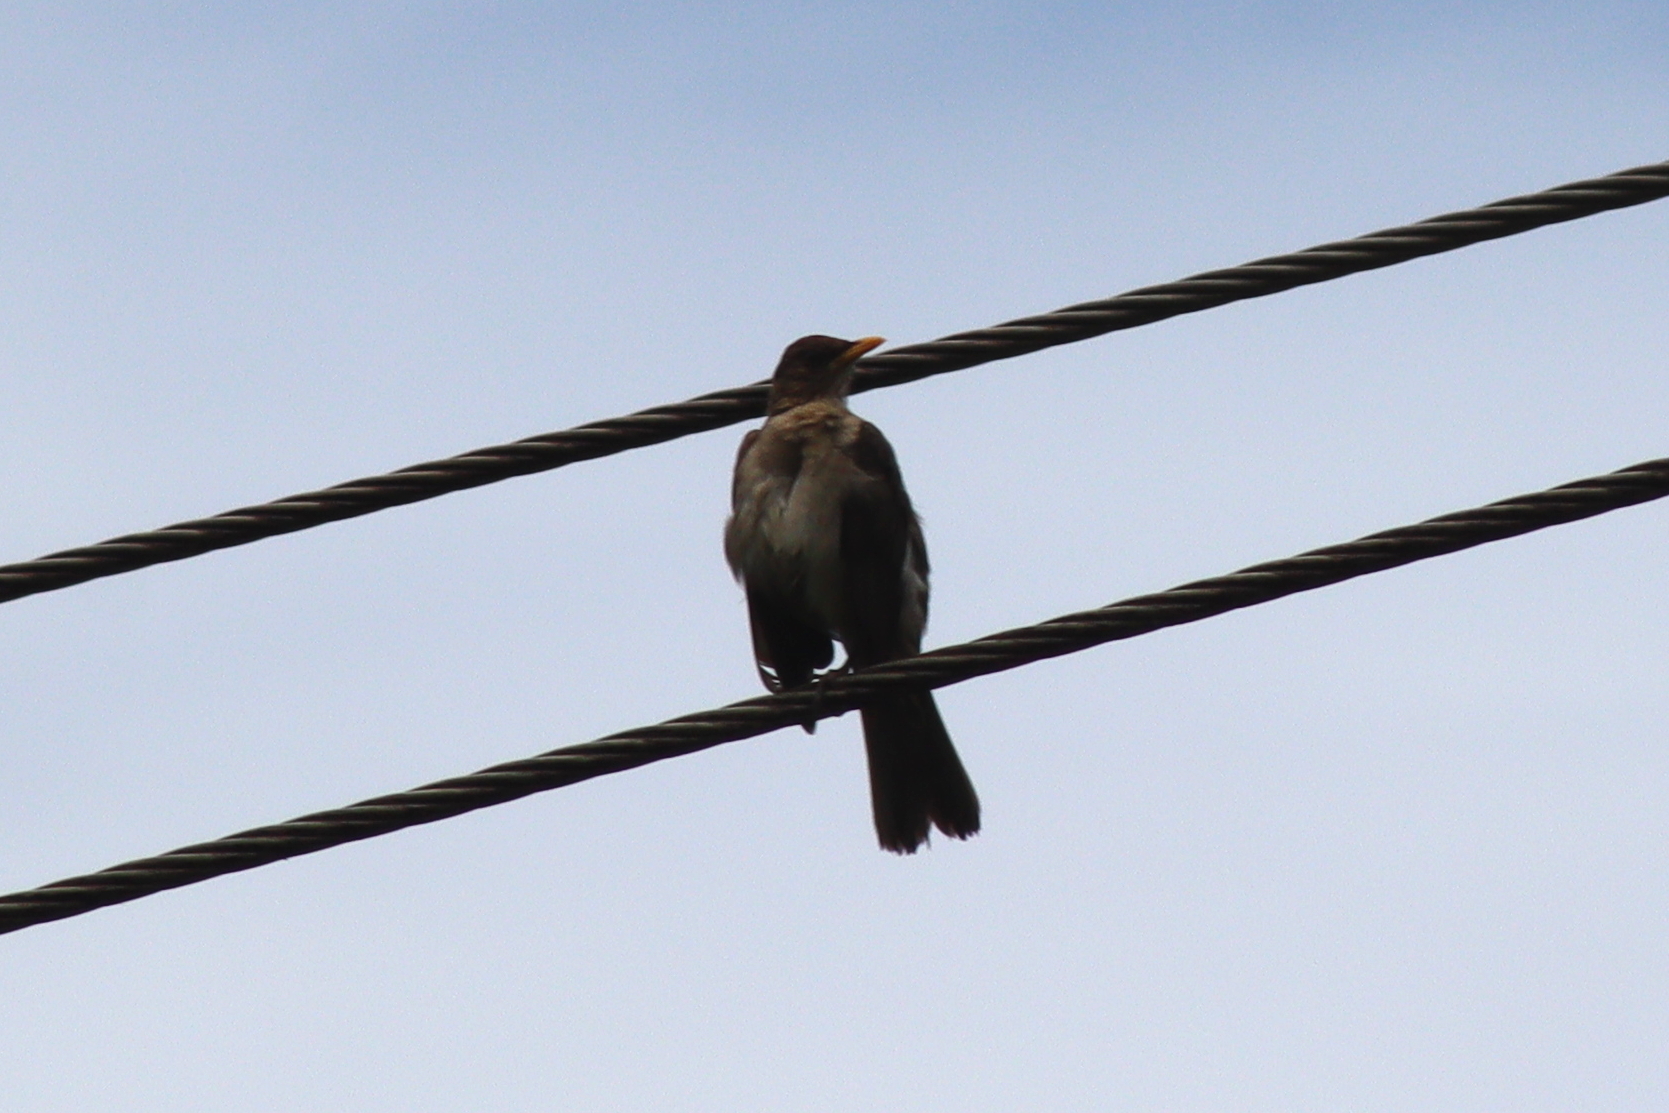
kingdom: Animalia
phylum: Chordata
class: Aves
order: Passeriformes
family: Turdidae
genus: Turdus
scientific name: Turdus amaurochalinus
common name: Creamy-bellied thrush
